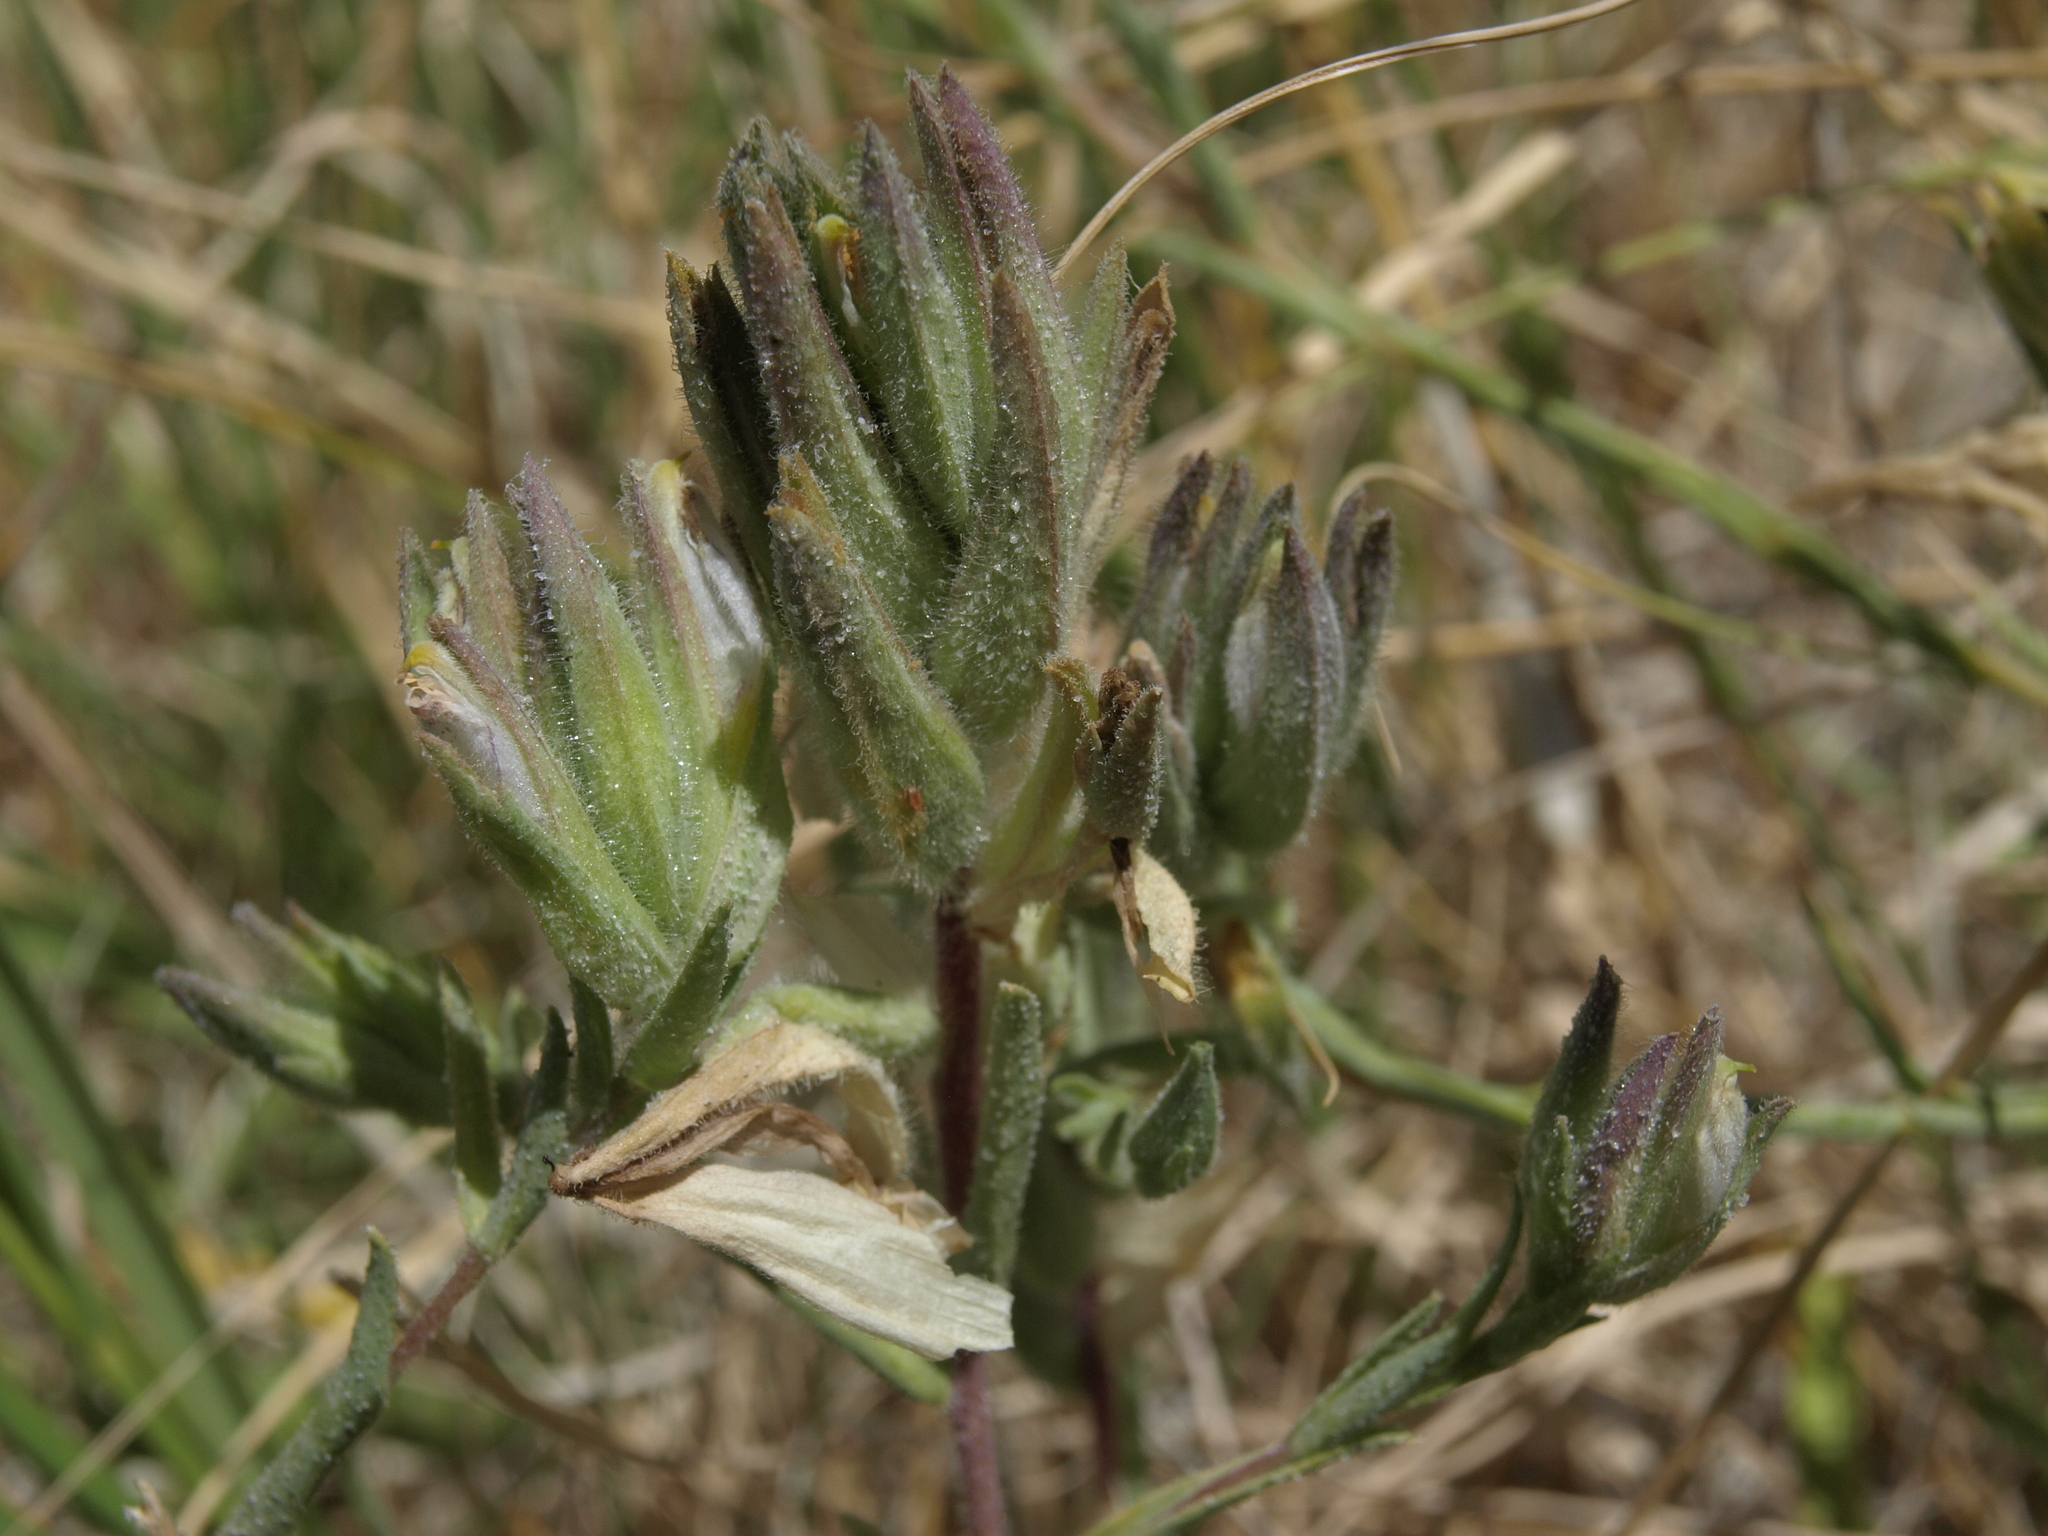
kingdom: Plantae
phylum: Tracheophyta
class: Magnoliopsida
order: Lamiales
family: Orobanchaceae
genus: Chloropyron
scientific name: Chloropyron maritimum
